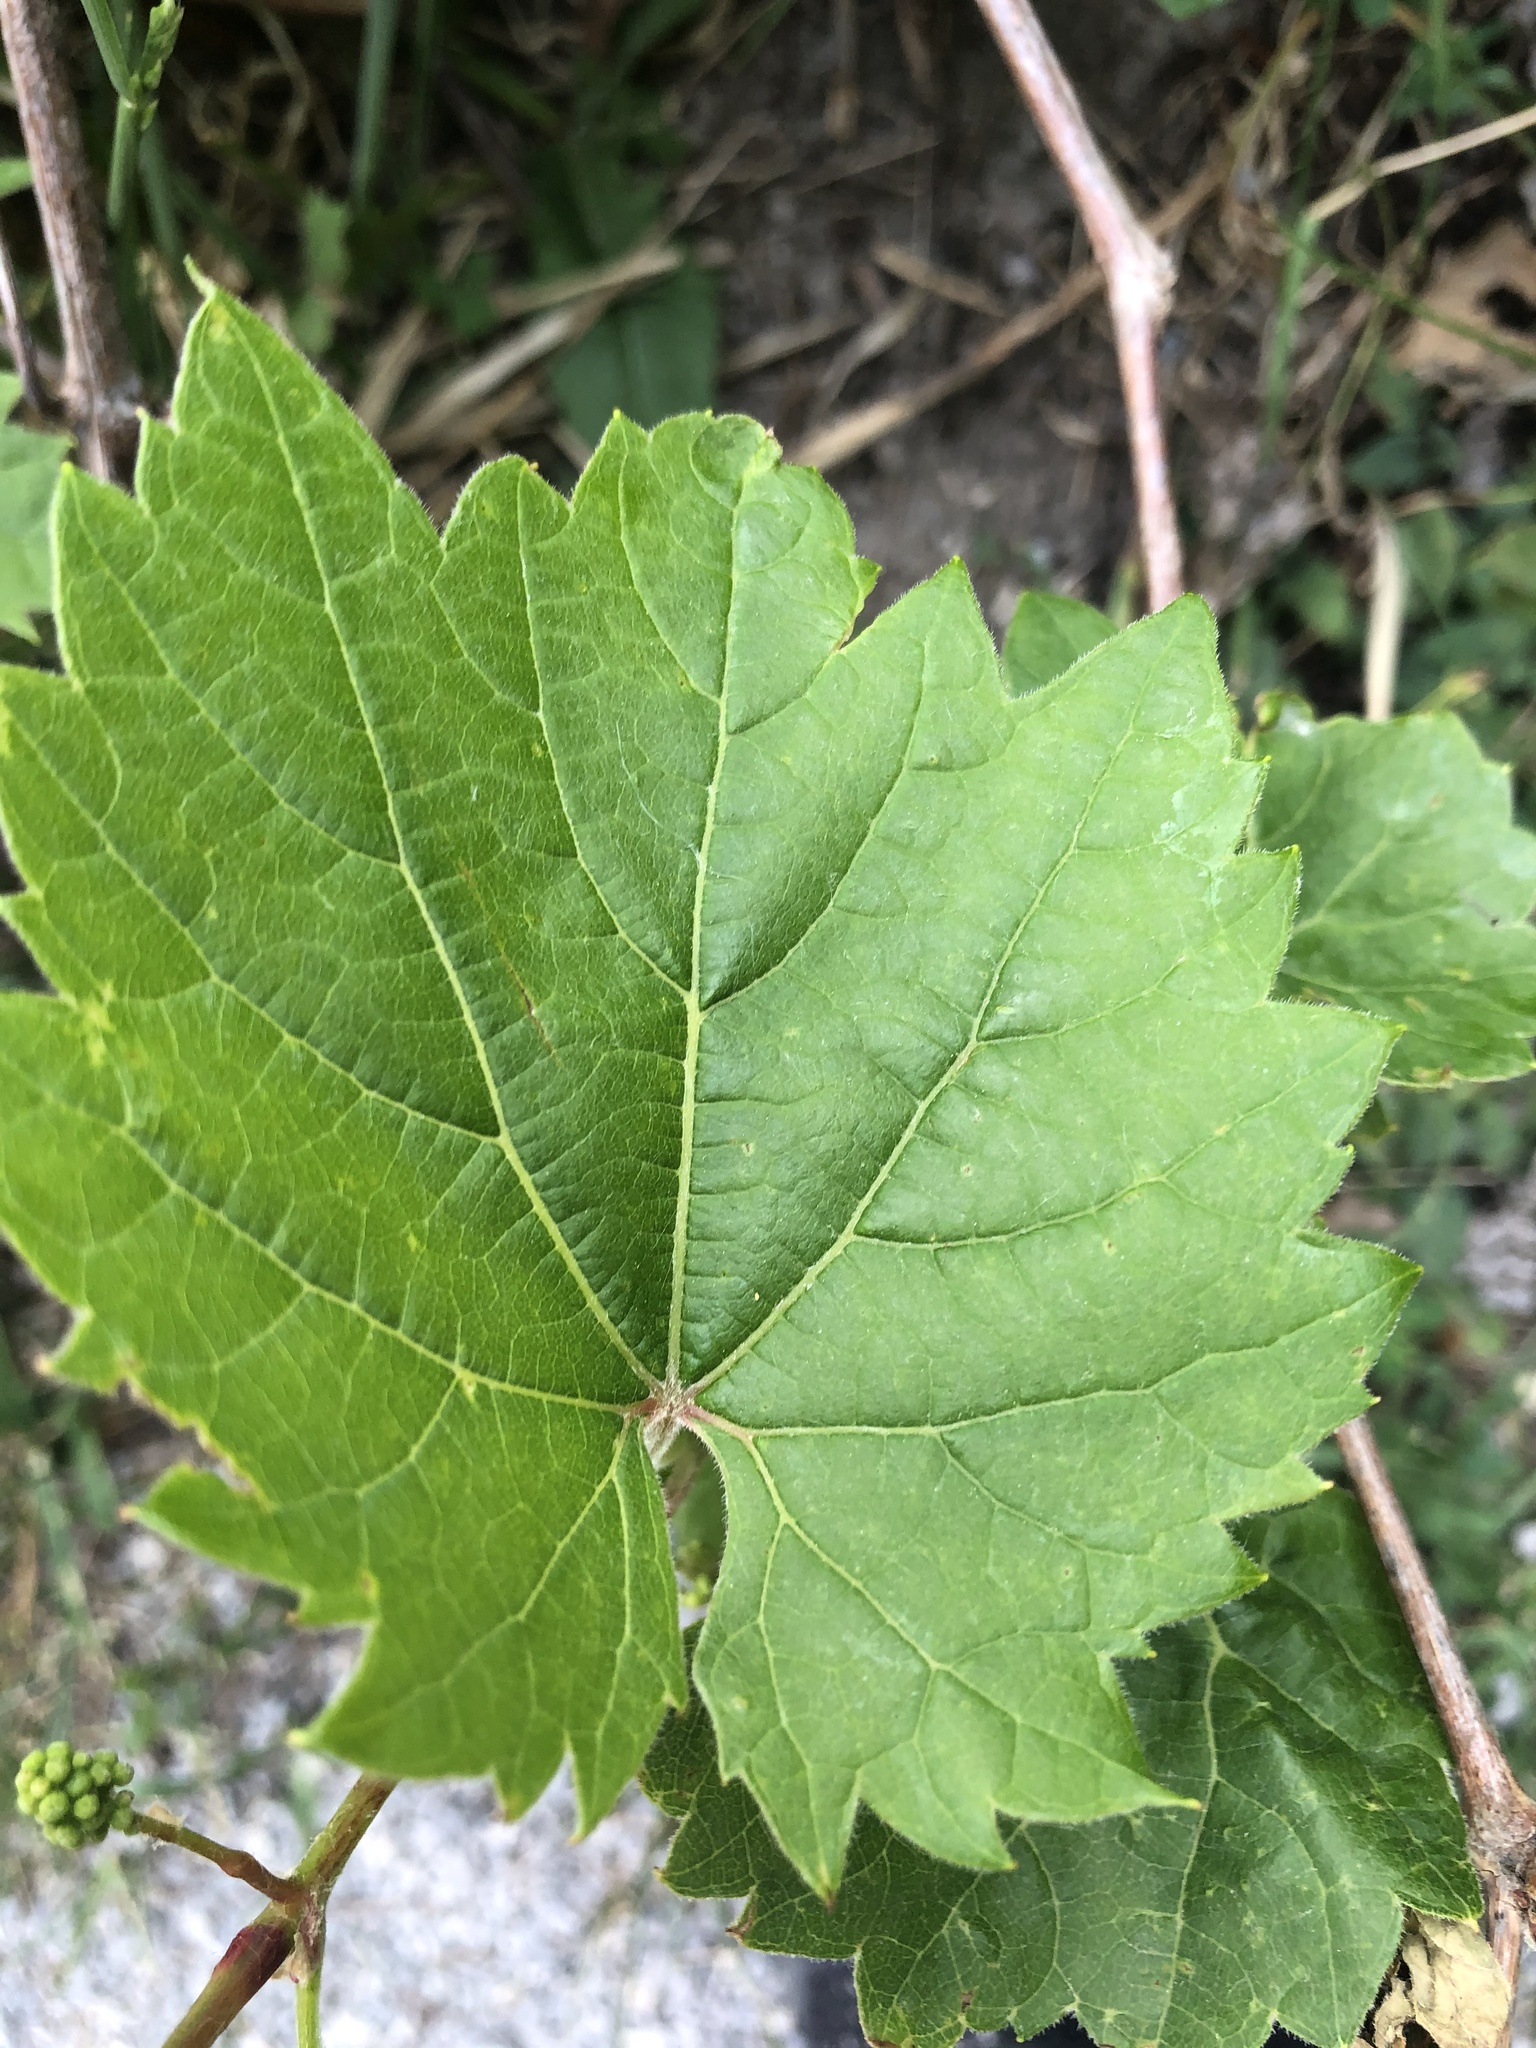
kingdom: Plantae
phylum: Tracheophyta
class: Magnoliopsida
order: Vitales
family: Vitaceae
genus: Vitis
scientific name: Vitis riparia
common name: Frost grape
